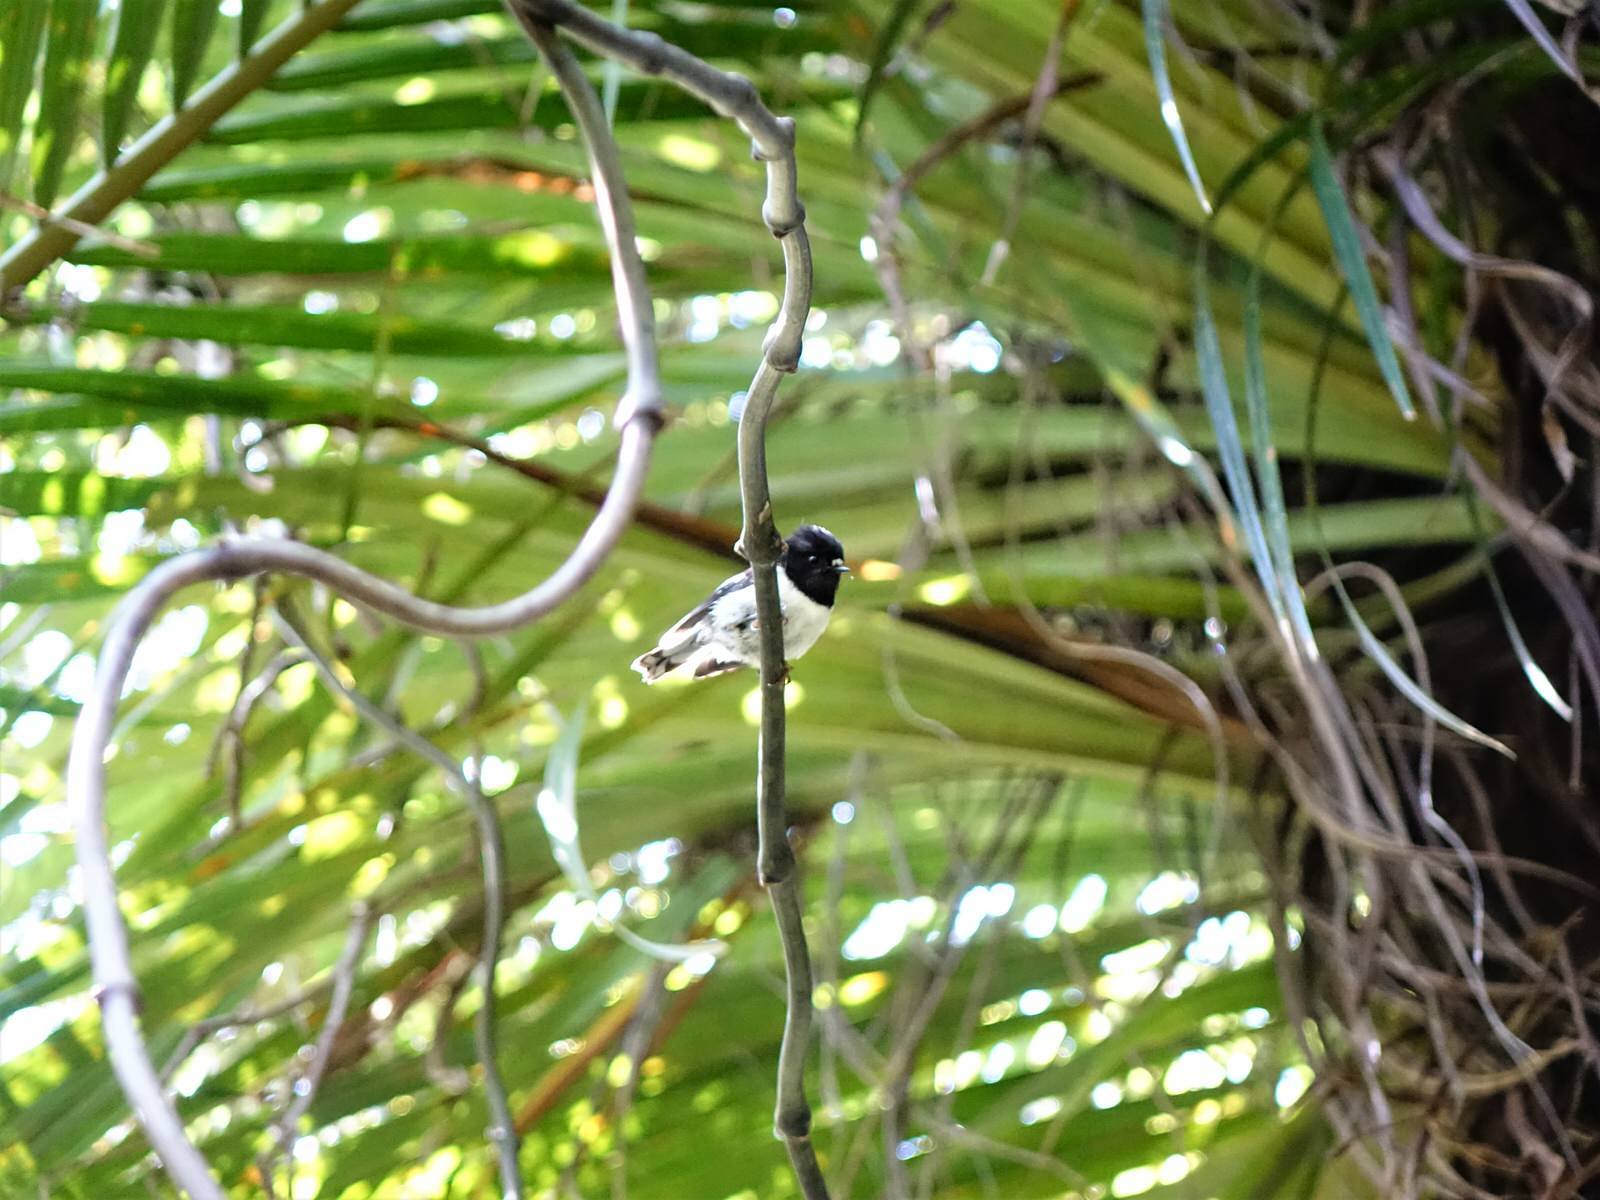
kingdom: Animalia
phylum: Chordata
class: Aves
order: Passeriformes
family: Petroicidae
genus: Petroica
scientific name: Petroica macrocephala
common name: Tomtit
